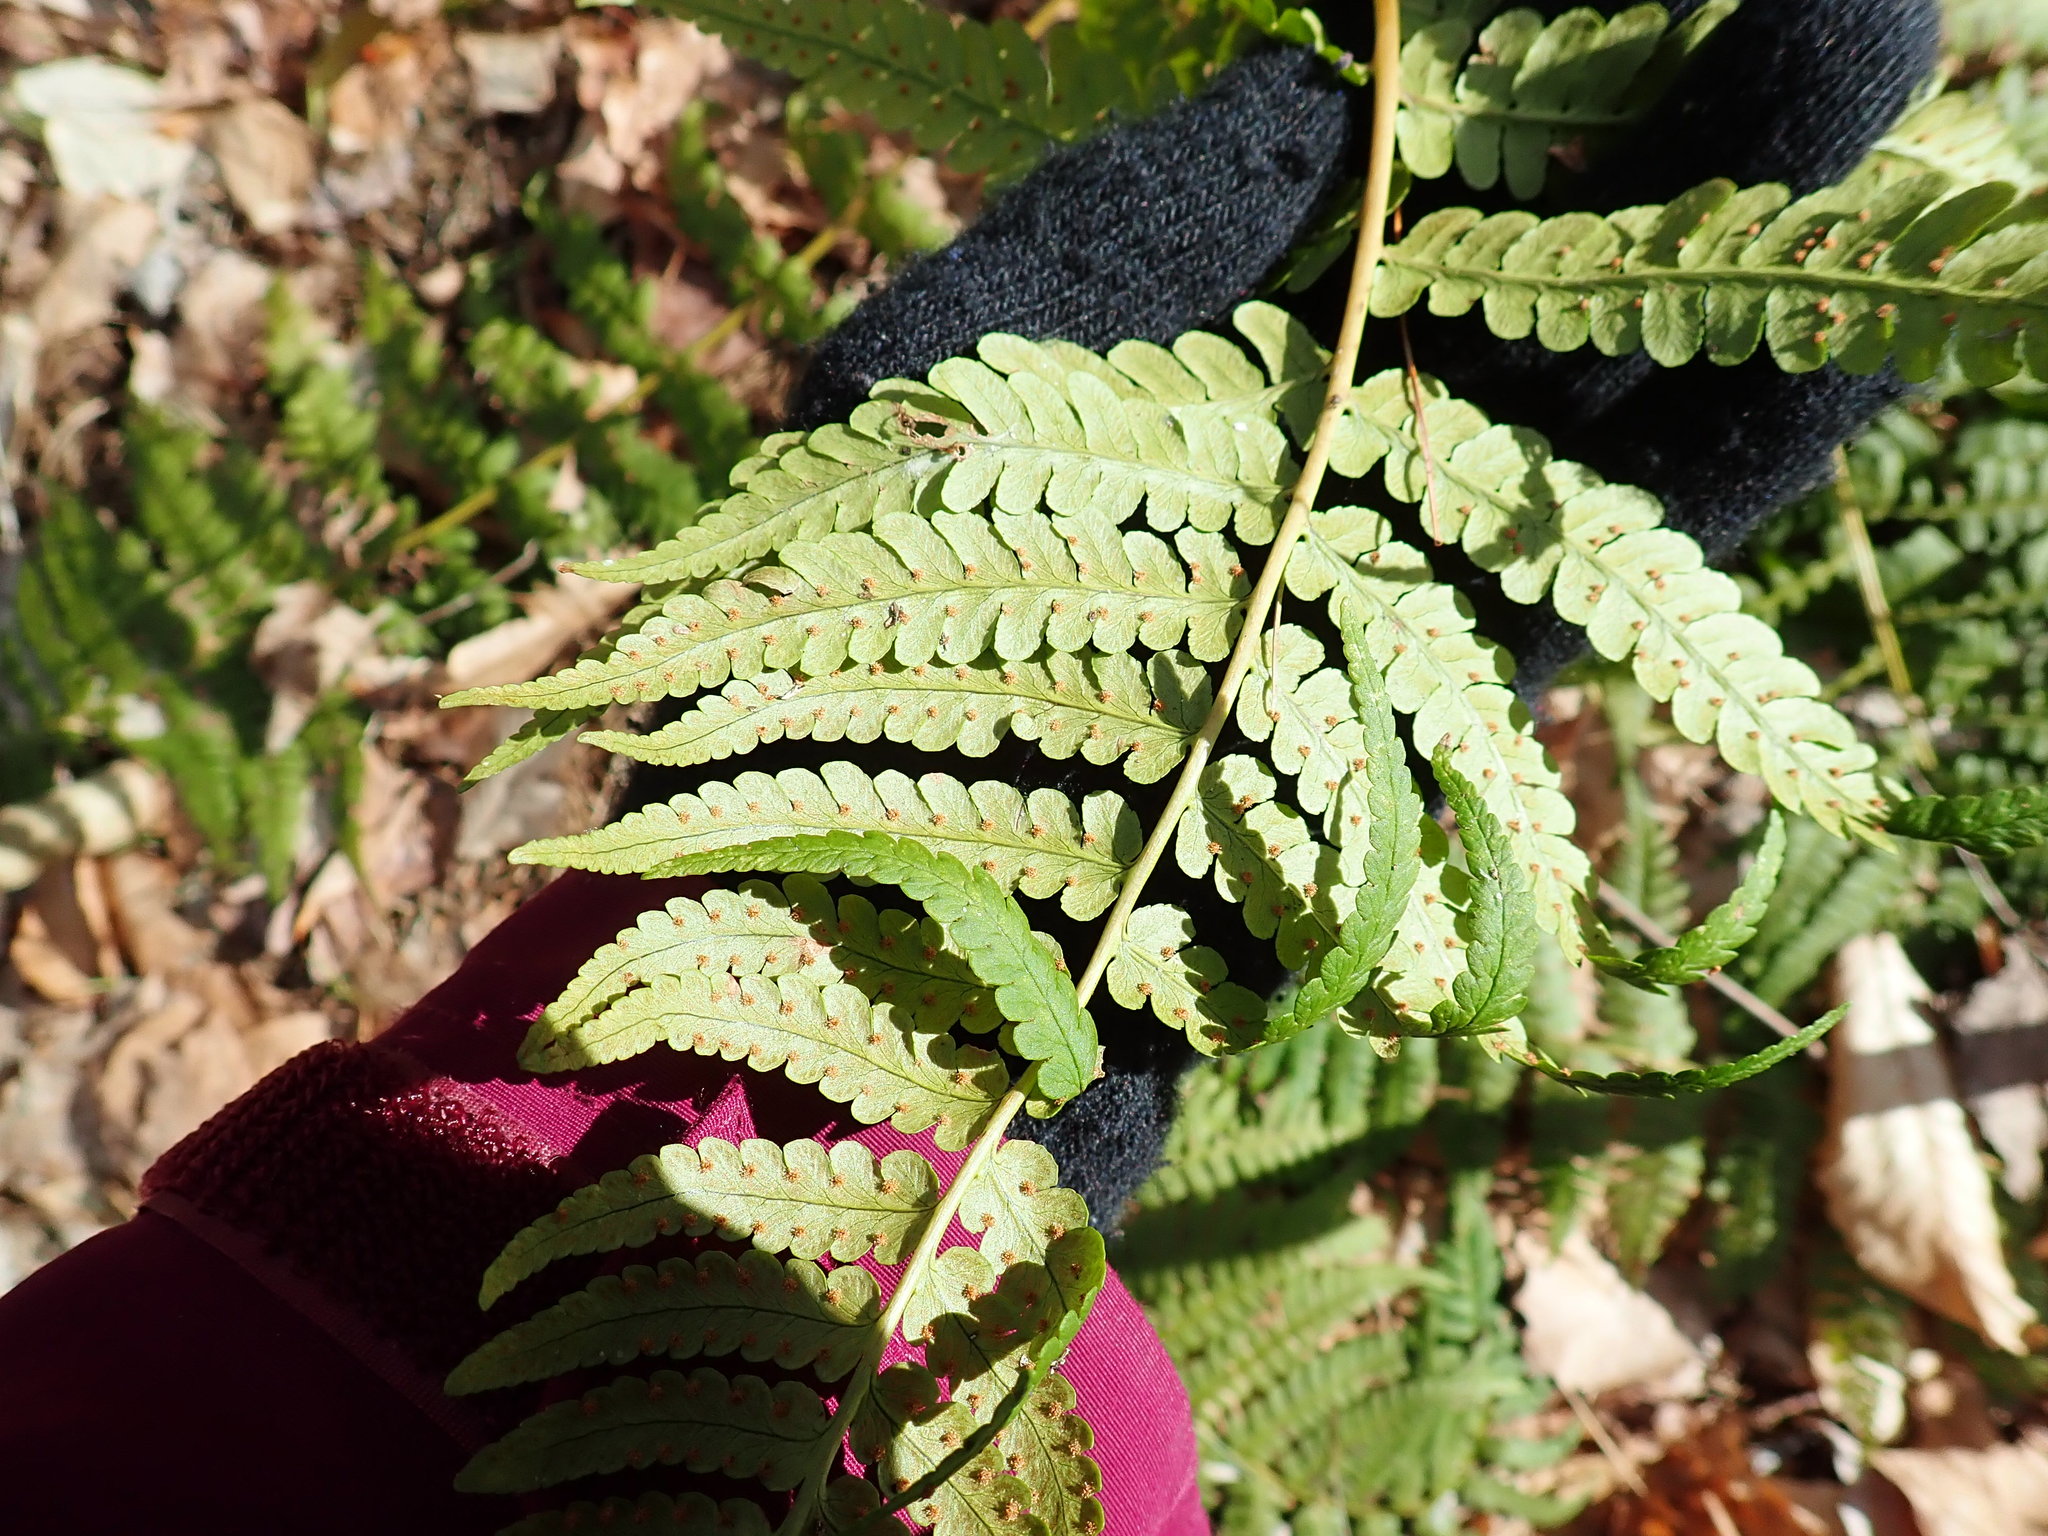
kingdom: Plantae
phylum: Tracheophyta
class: Polypodiopsida
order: Polypodiales
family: Dryopteridaceae
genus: Dryopteris
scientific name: Dryopteris marginalis
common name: Marginal wood fern
